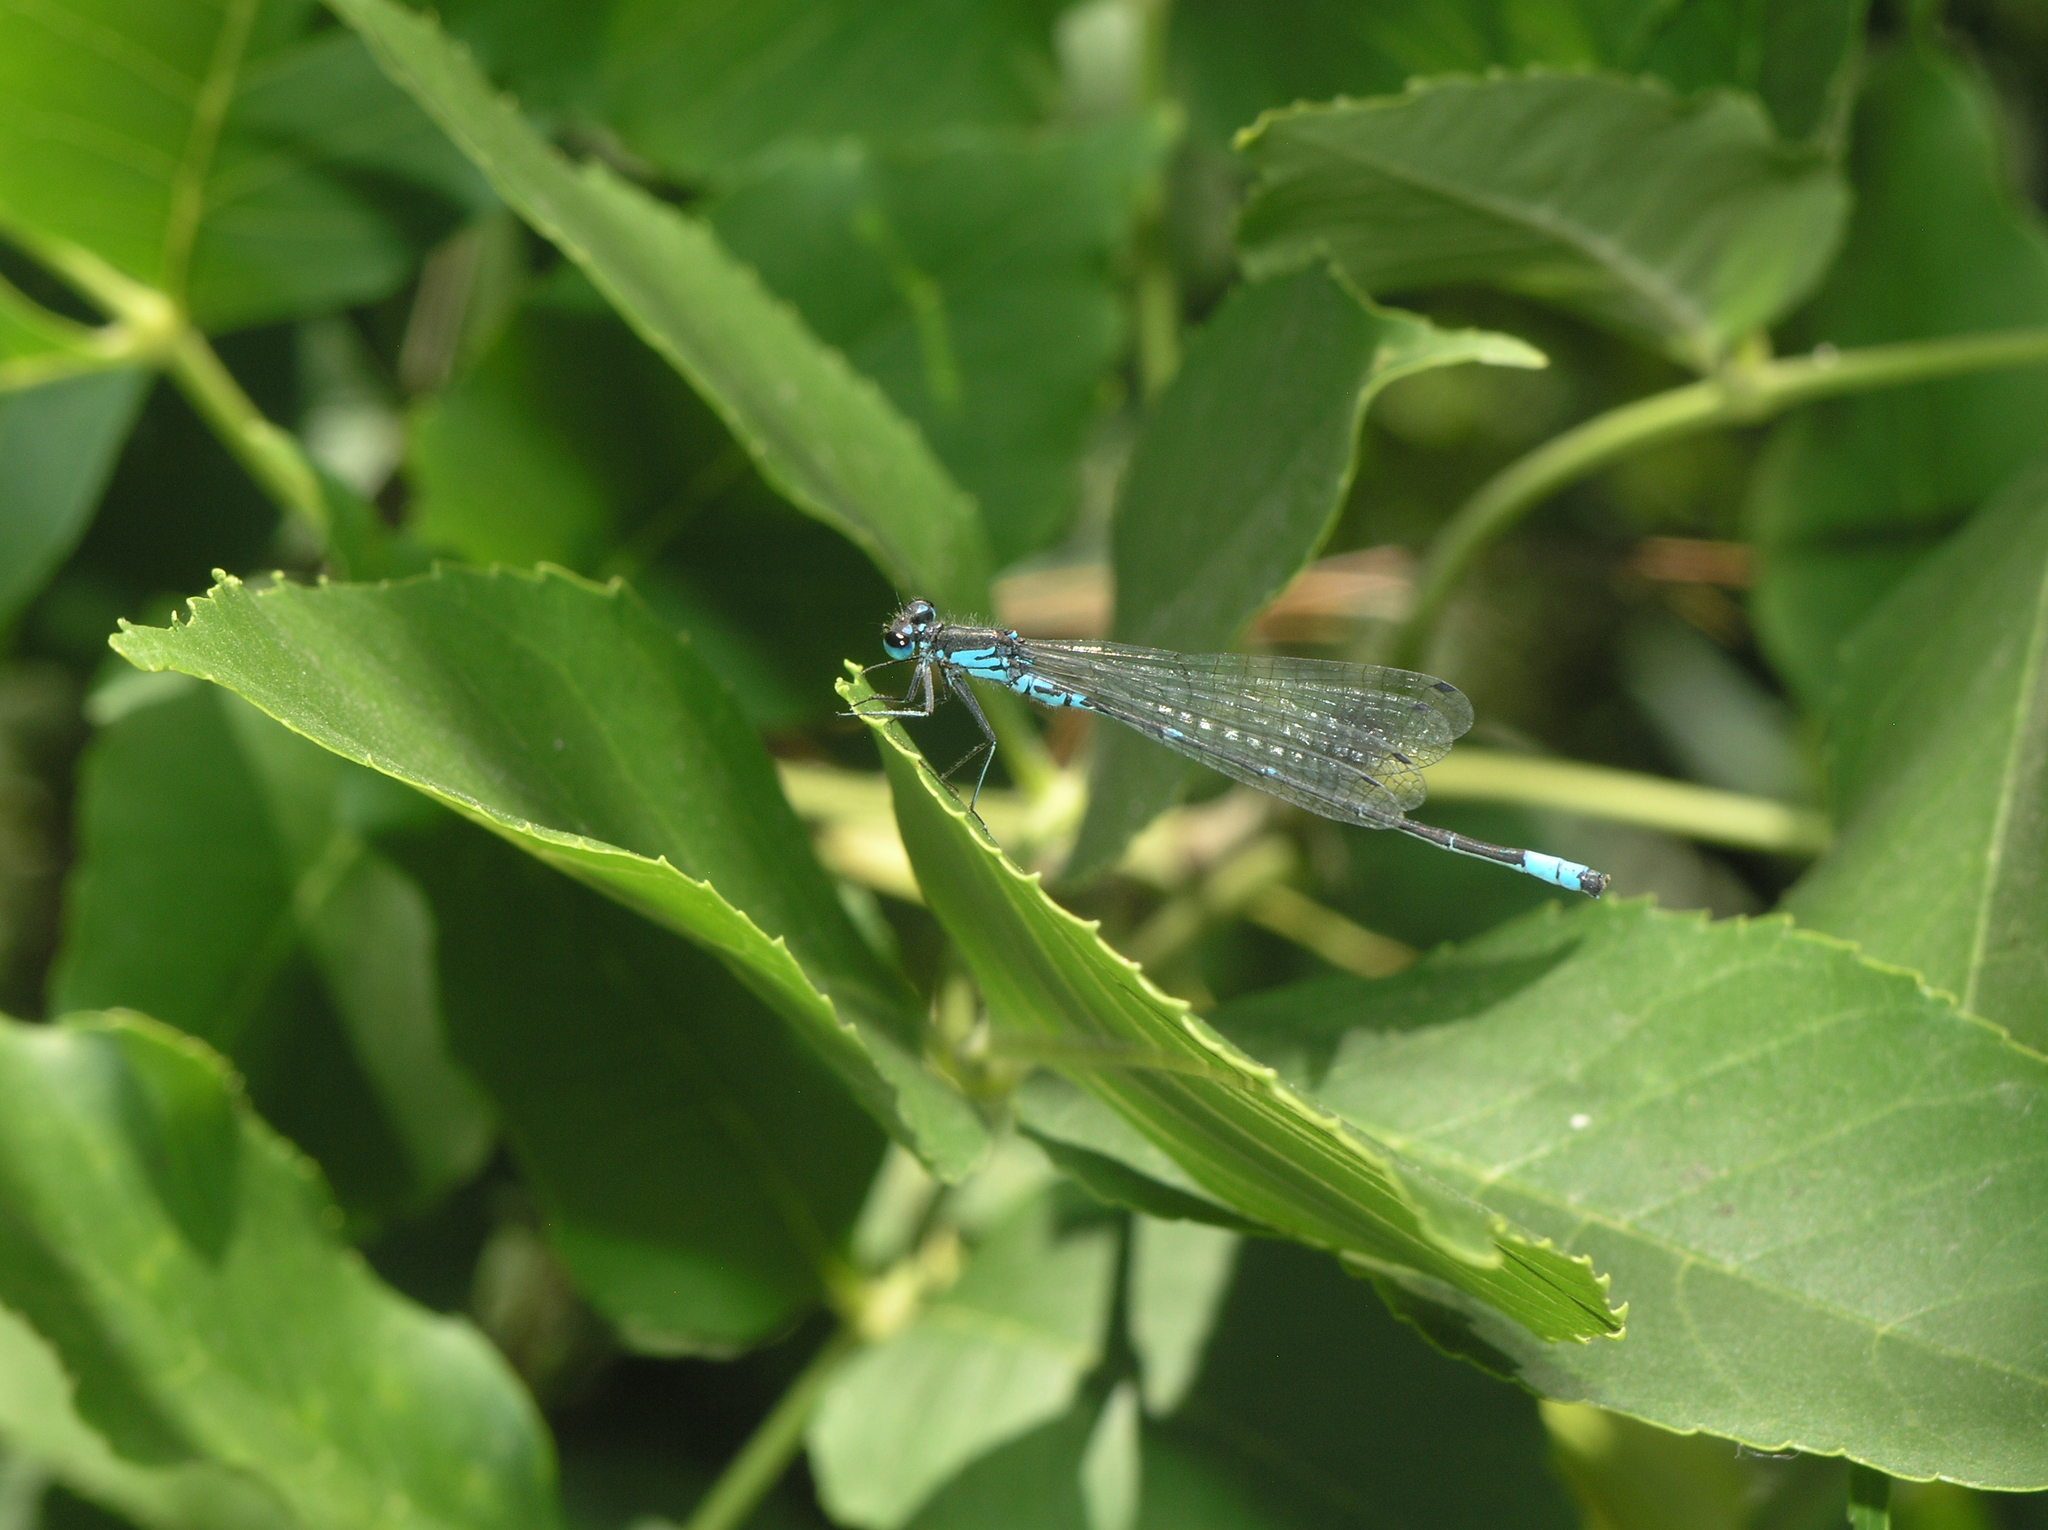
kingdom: Animalia
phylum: Arthropoda
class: Insecta
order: Odonata
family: Coenagrionidae
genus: Coenagrion
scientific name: Coenagrion pulchellum
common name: Variable bluet
